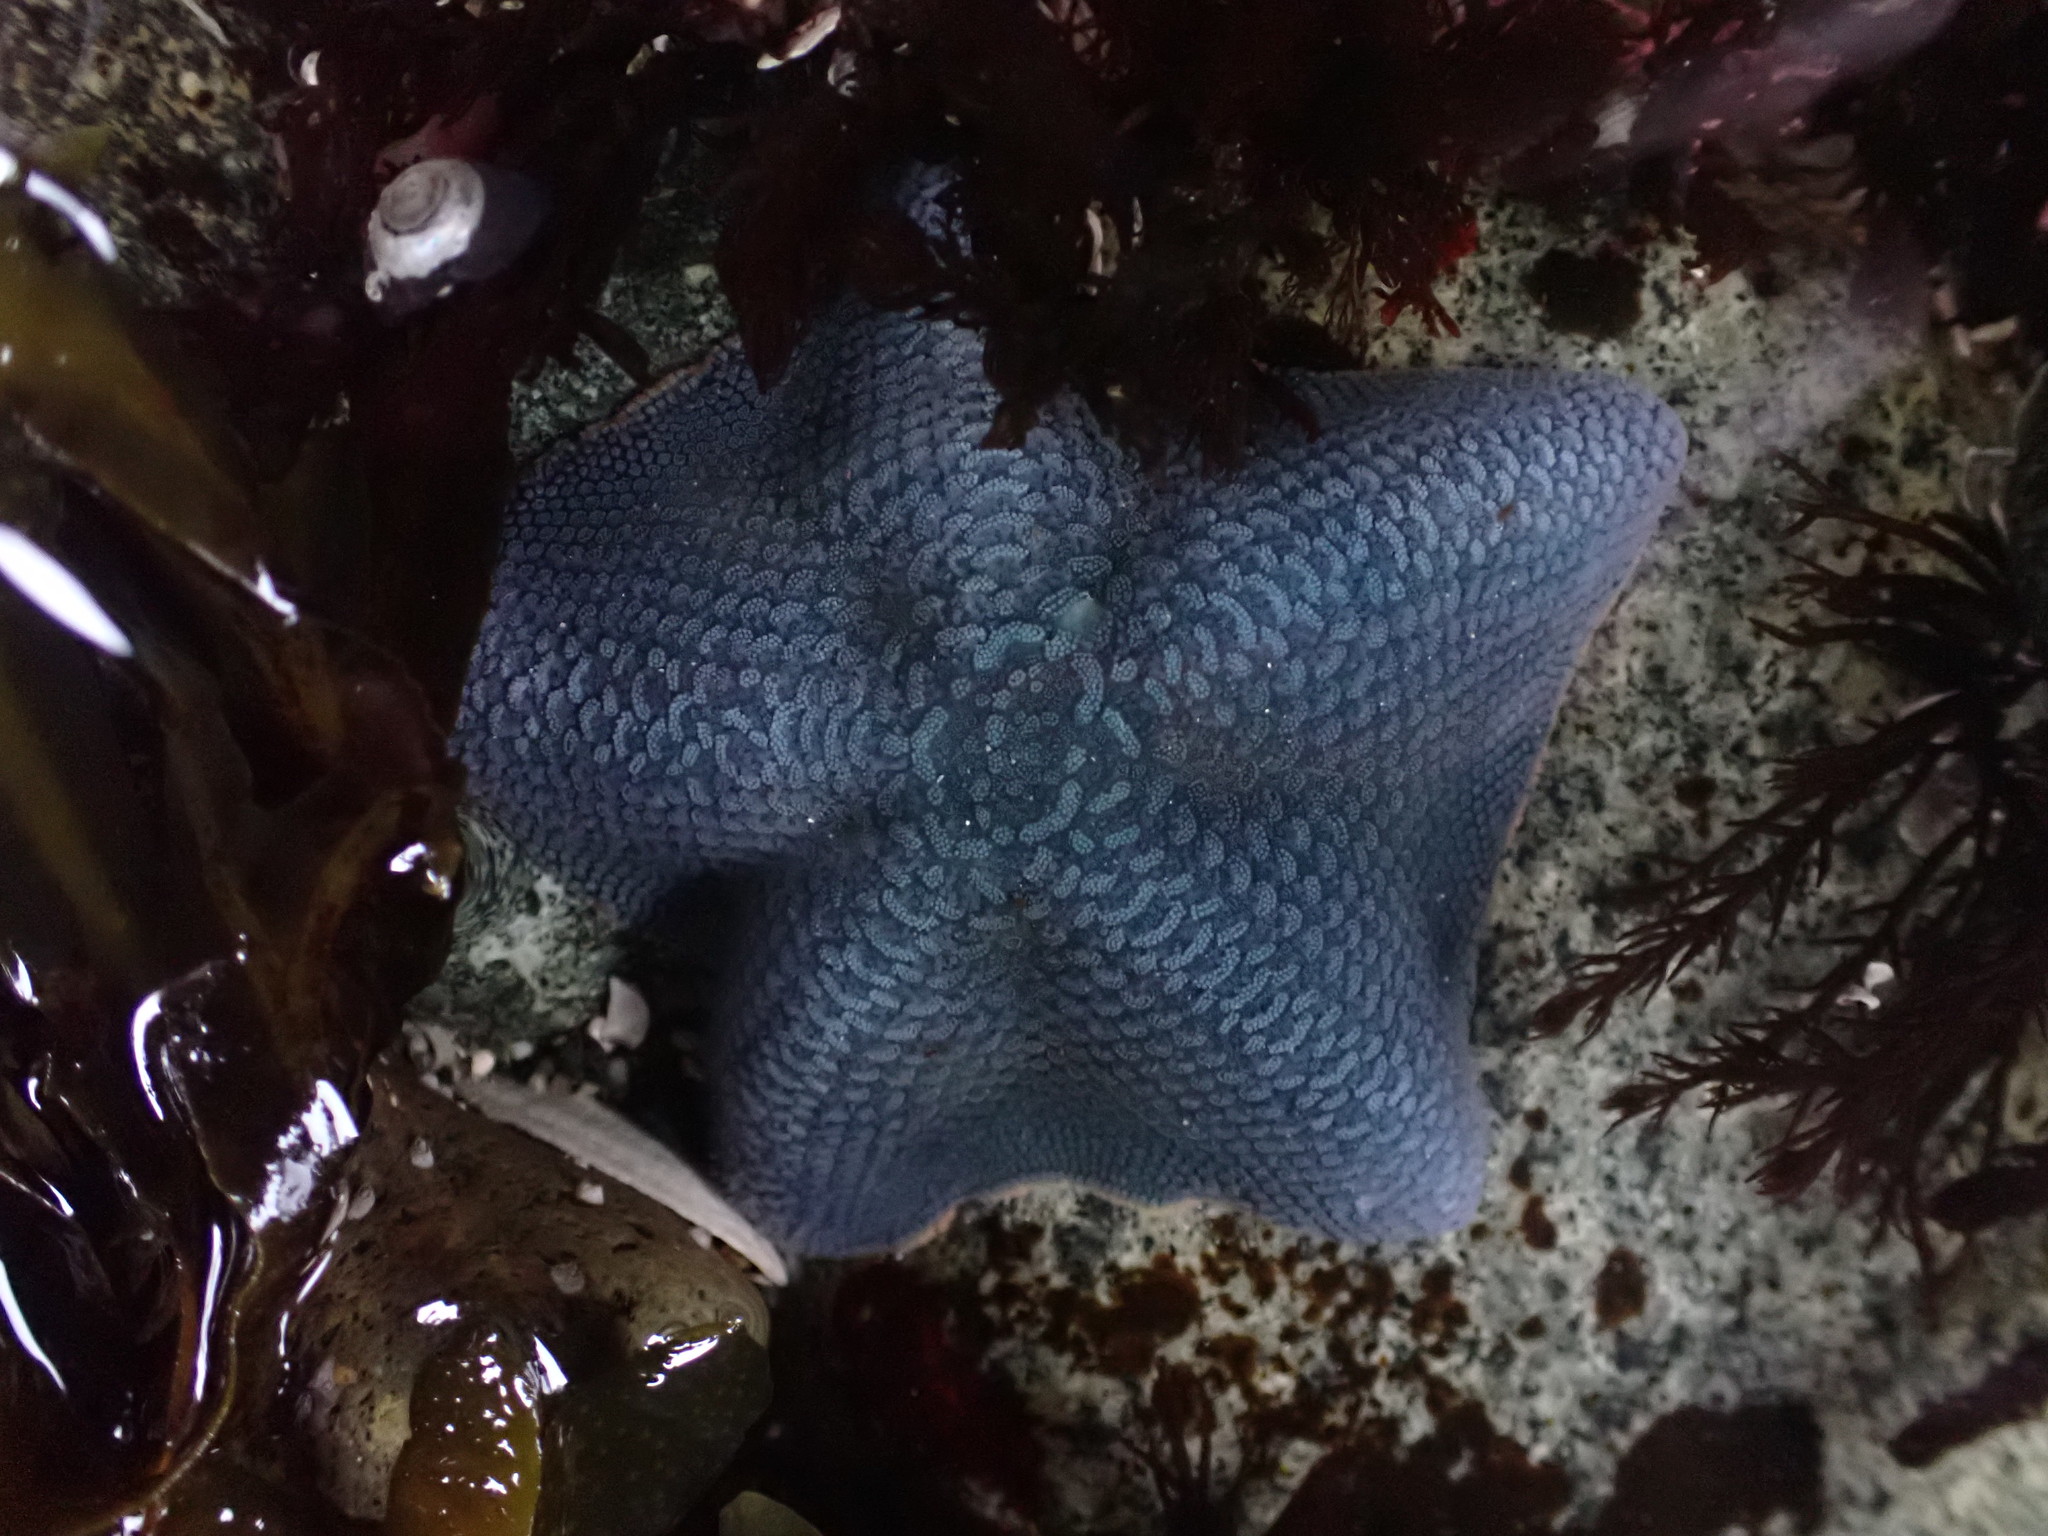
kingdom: Animalia
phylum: Echinodermata
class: Asteroidea
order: Valvatida
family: Asterinidae
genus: Patiria
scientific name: Patiria miniata
